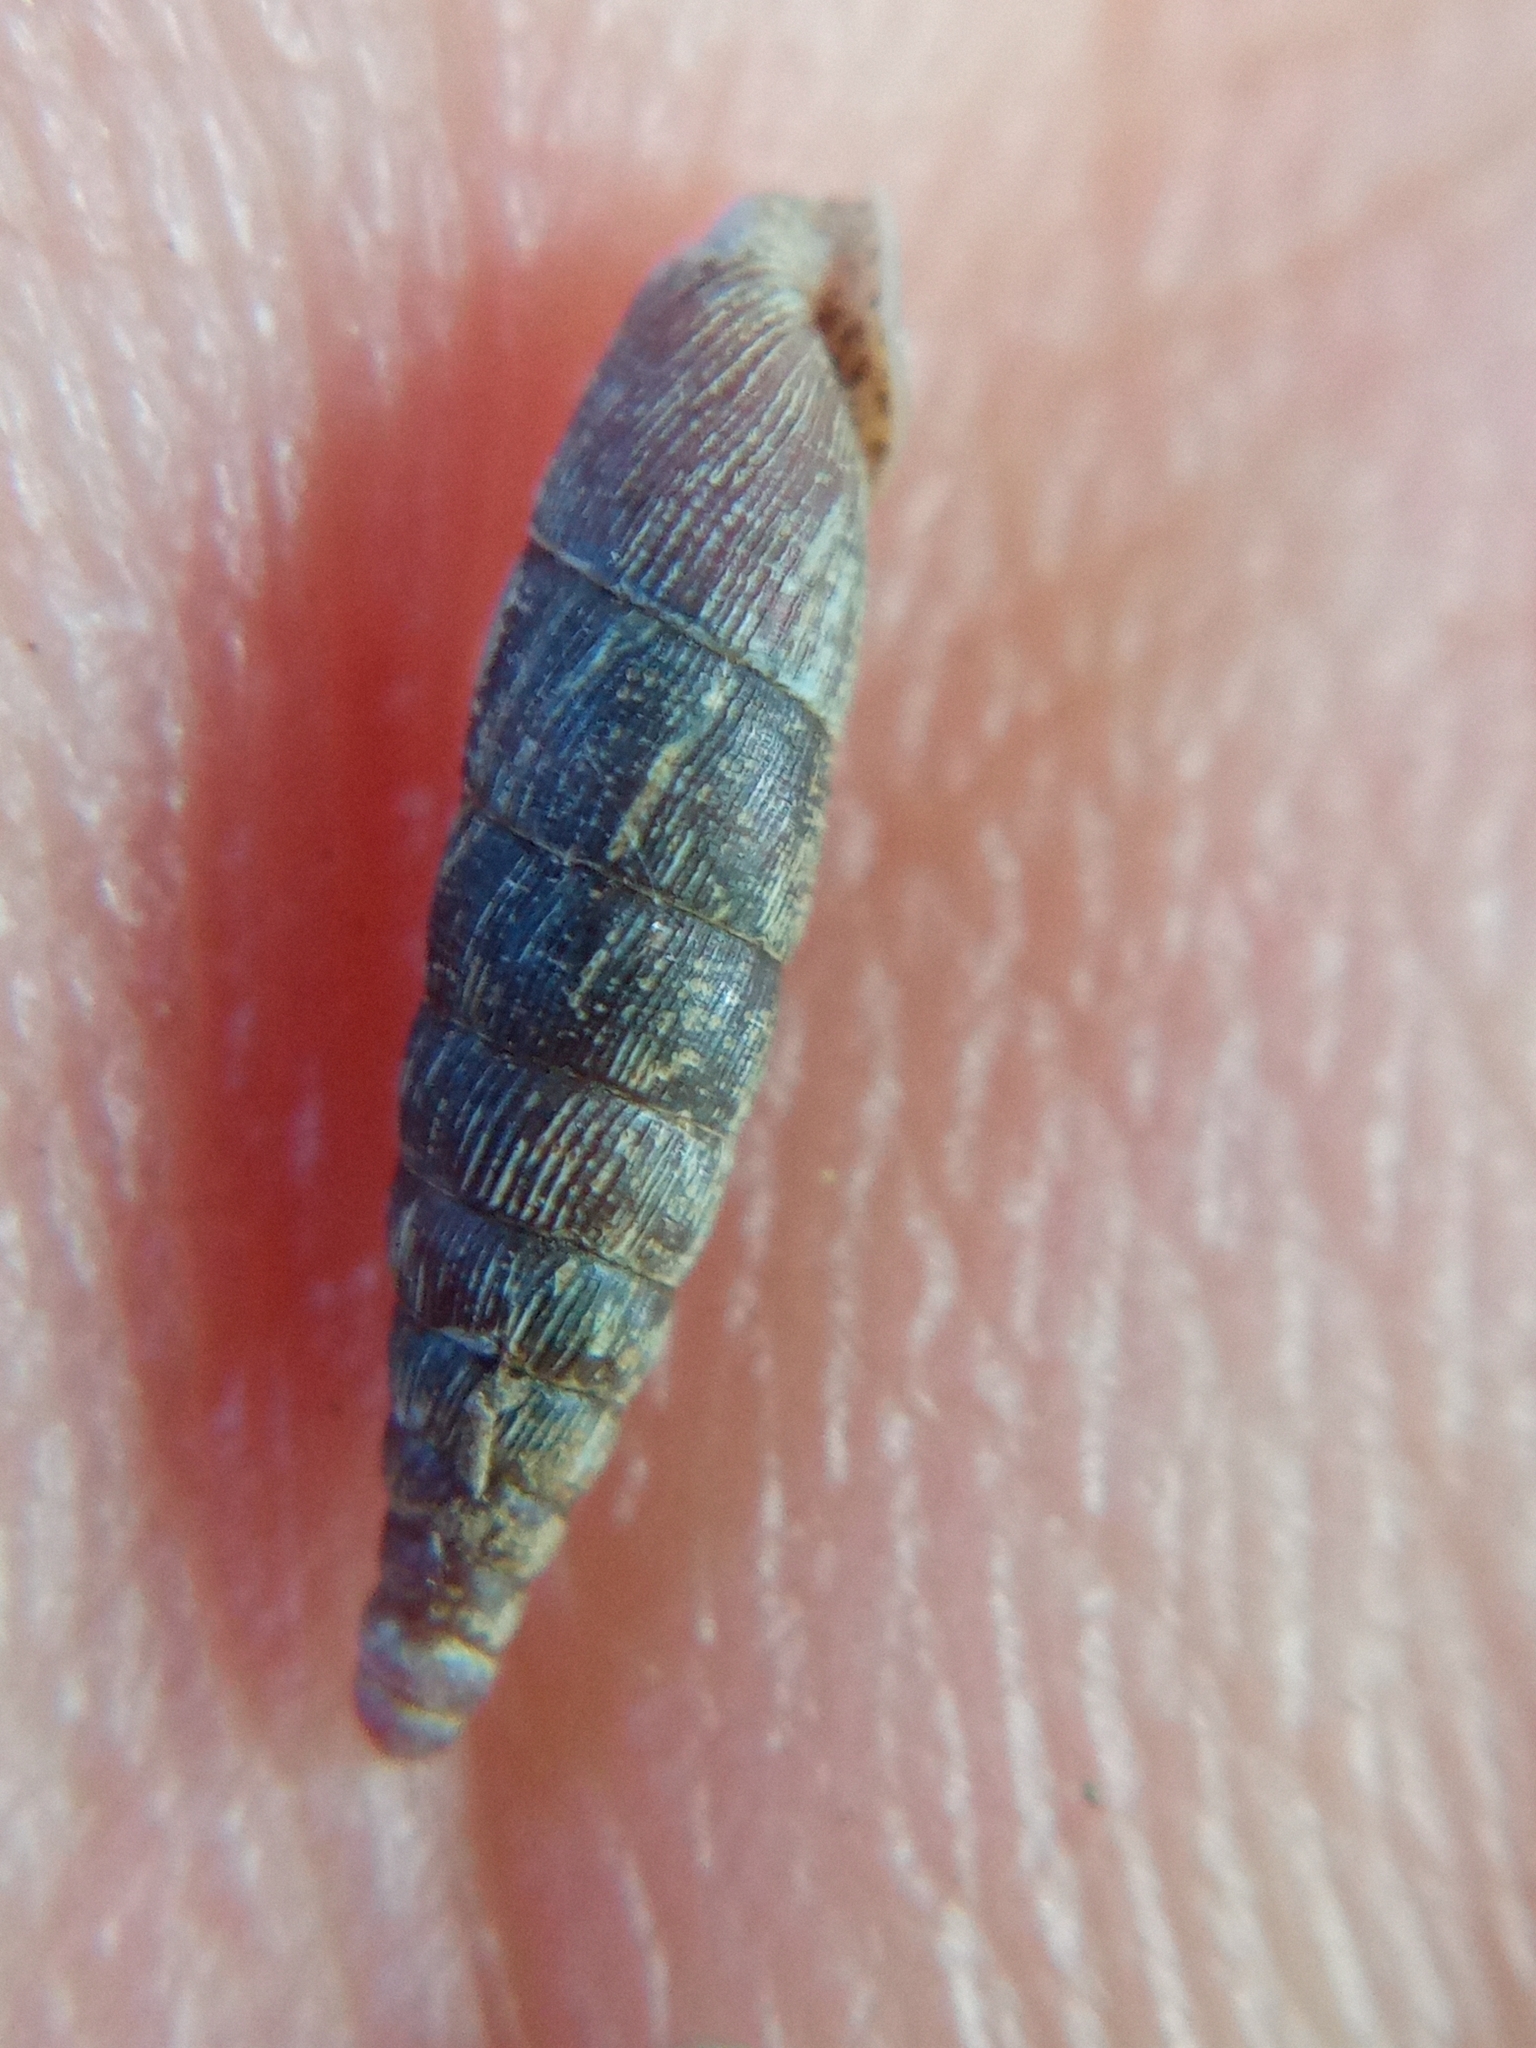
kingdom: Animalia
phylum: Mollusca
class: Gastropoda
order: Stylommatophora
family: Clausiliidae
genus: Clausilia
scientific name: Clausilia bidentata
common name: Two-toothed door snail
